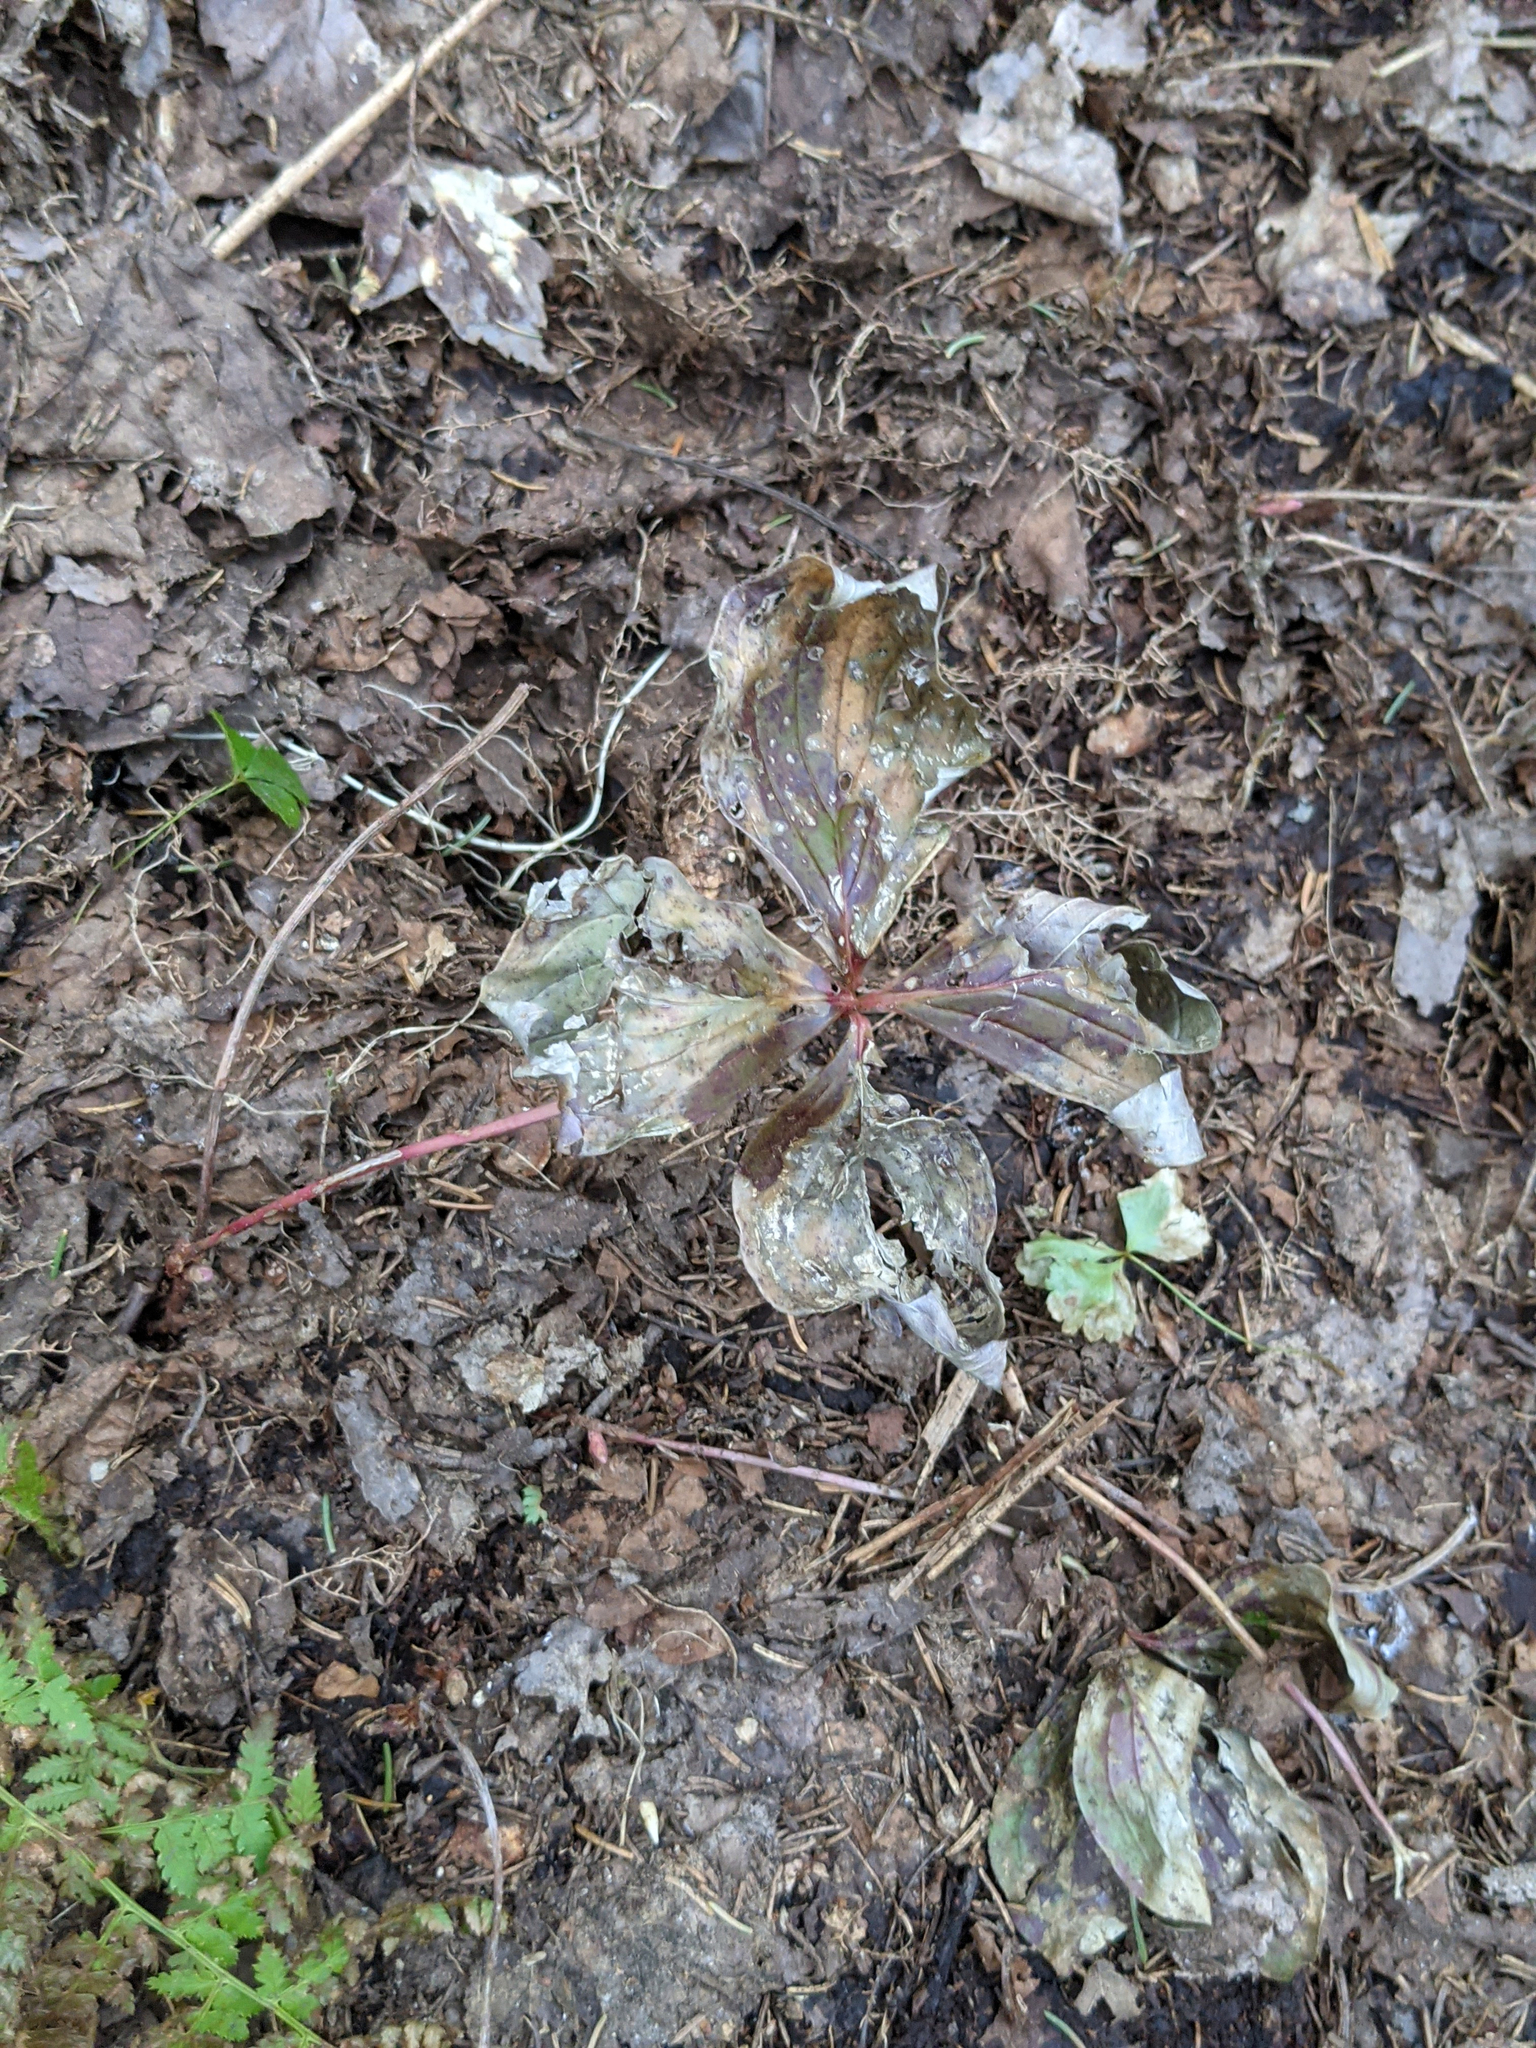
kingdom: Plantae
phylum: Tracheophyta
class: Magnoliopsida
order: Cornales
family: Cornaceae
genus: Cornus
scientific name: Cornus canadensis
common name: Creeping dogwood
